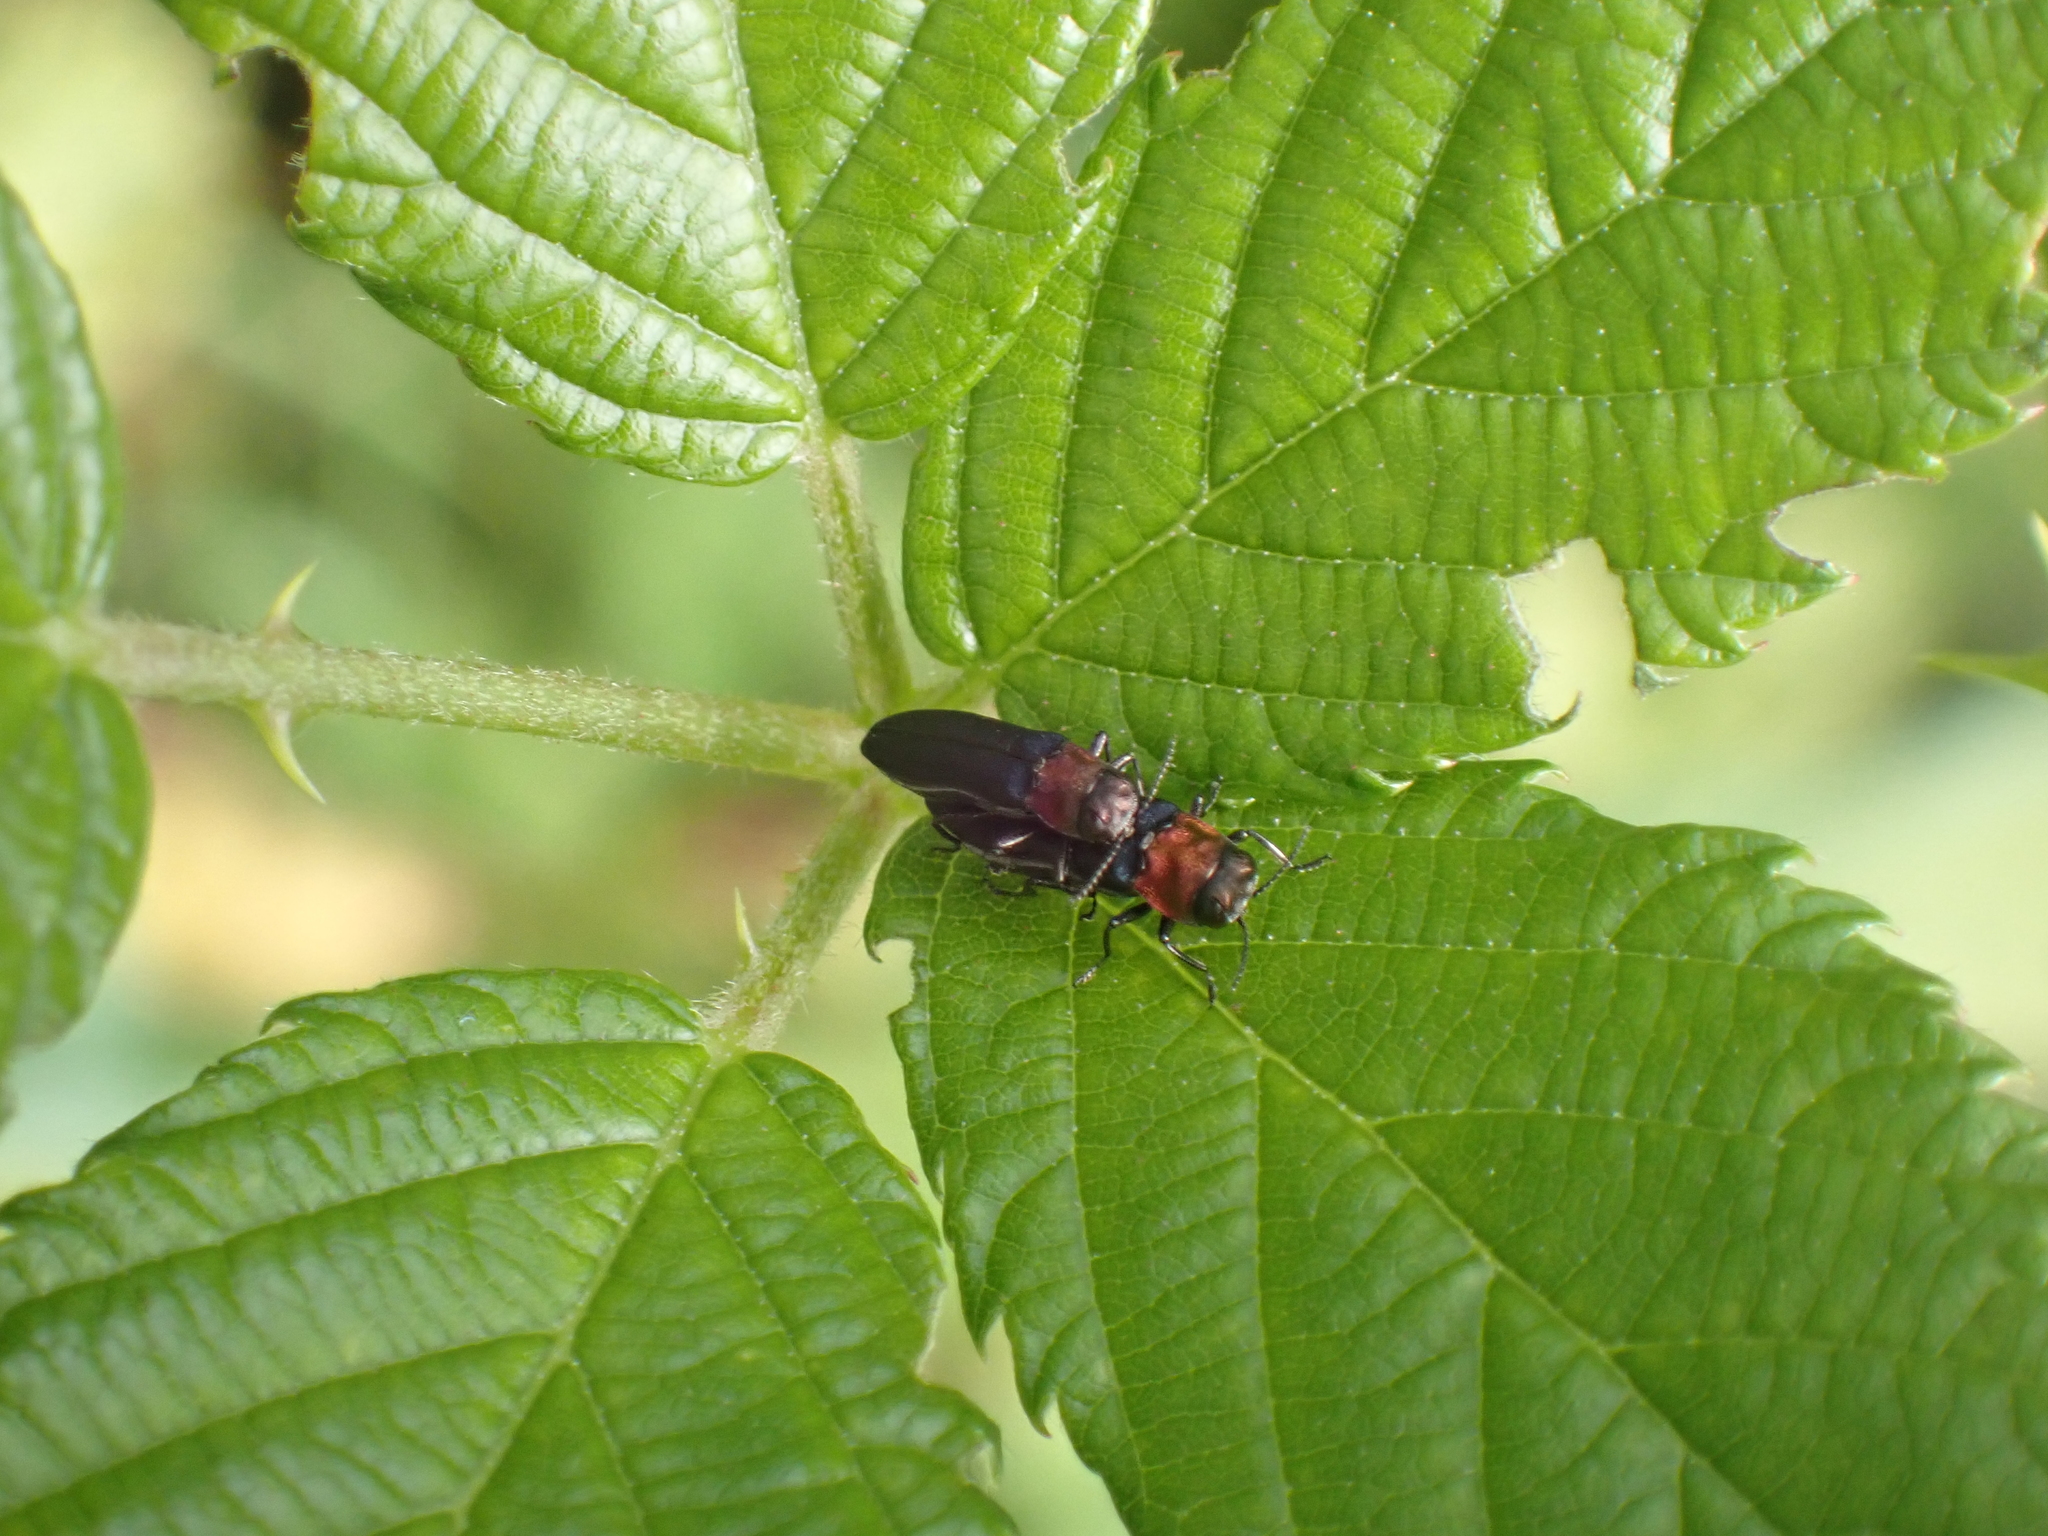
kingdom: Animalia
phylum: Arthropoda
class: Insecta
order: Coleoptera
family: Buprestidae
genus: Agrilus
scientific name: Agrilus ruficollis
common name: Red-necked cane borer beetle
